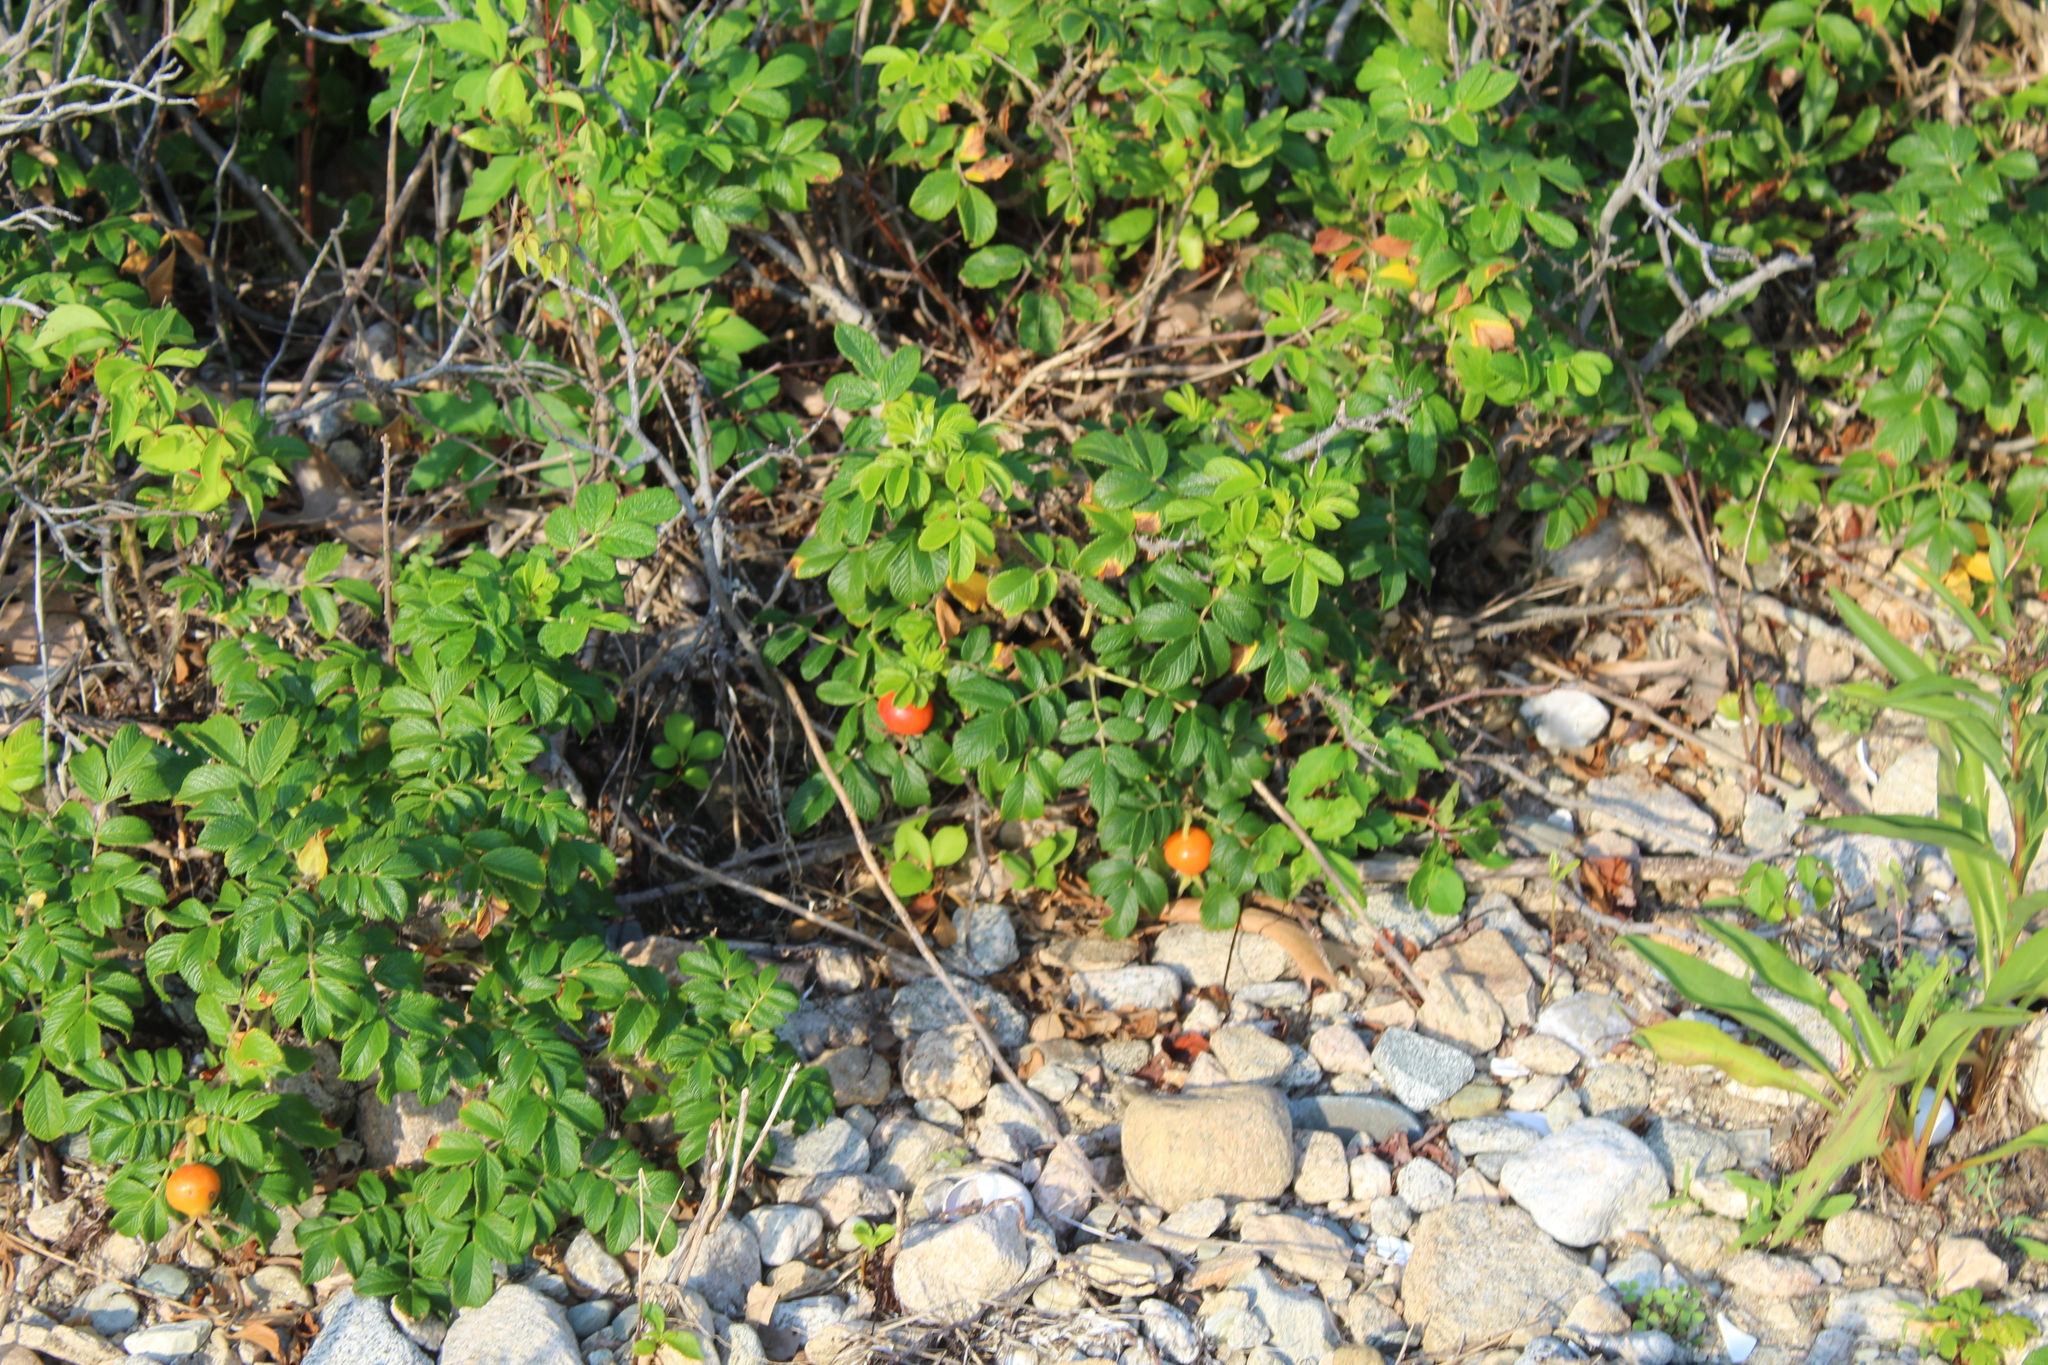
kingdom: Plantae
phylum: Tracheophyta
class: Magnoliopsida
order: Rosales
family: Rosaceae
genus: Rosa
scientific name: Rosa rugosa
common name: Japanese rose
